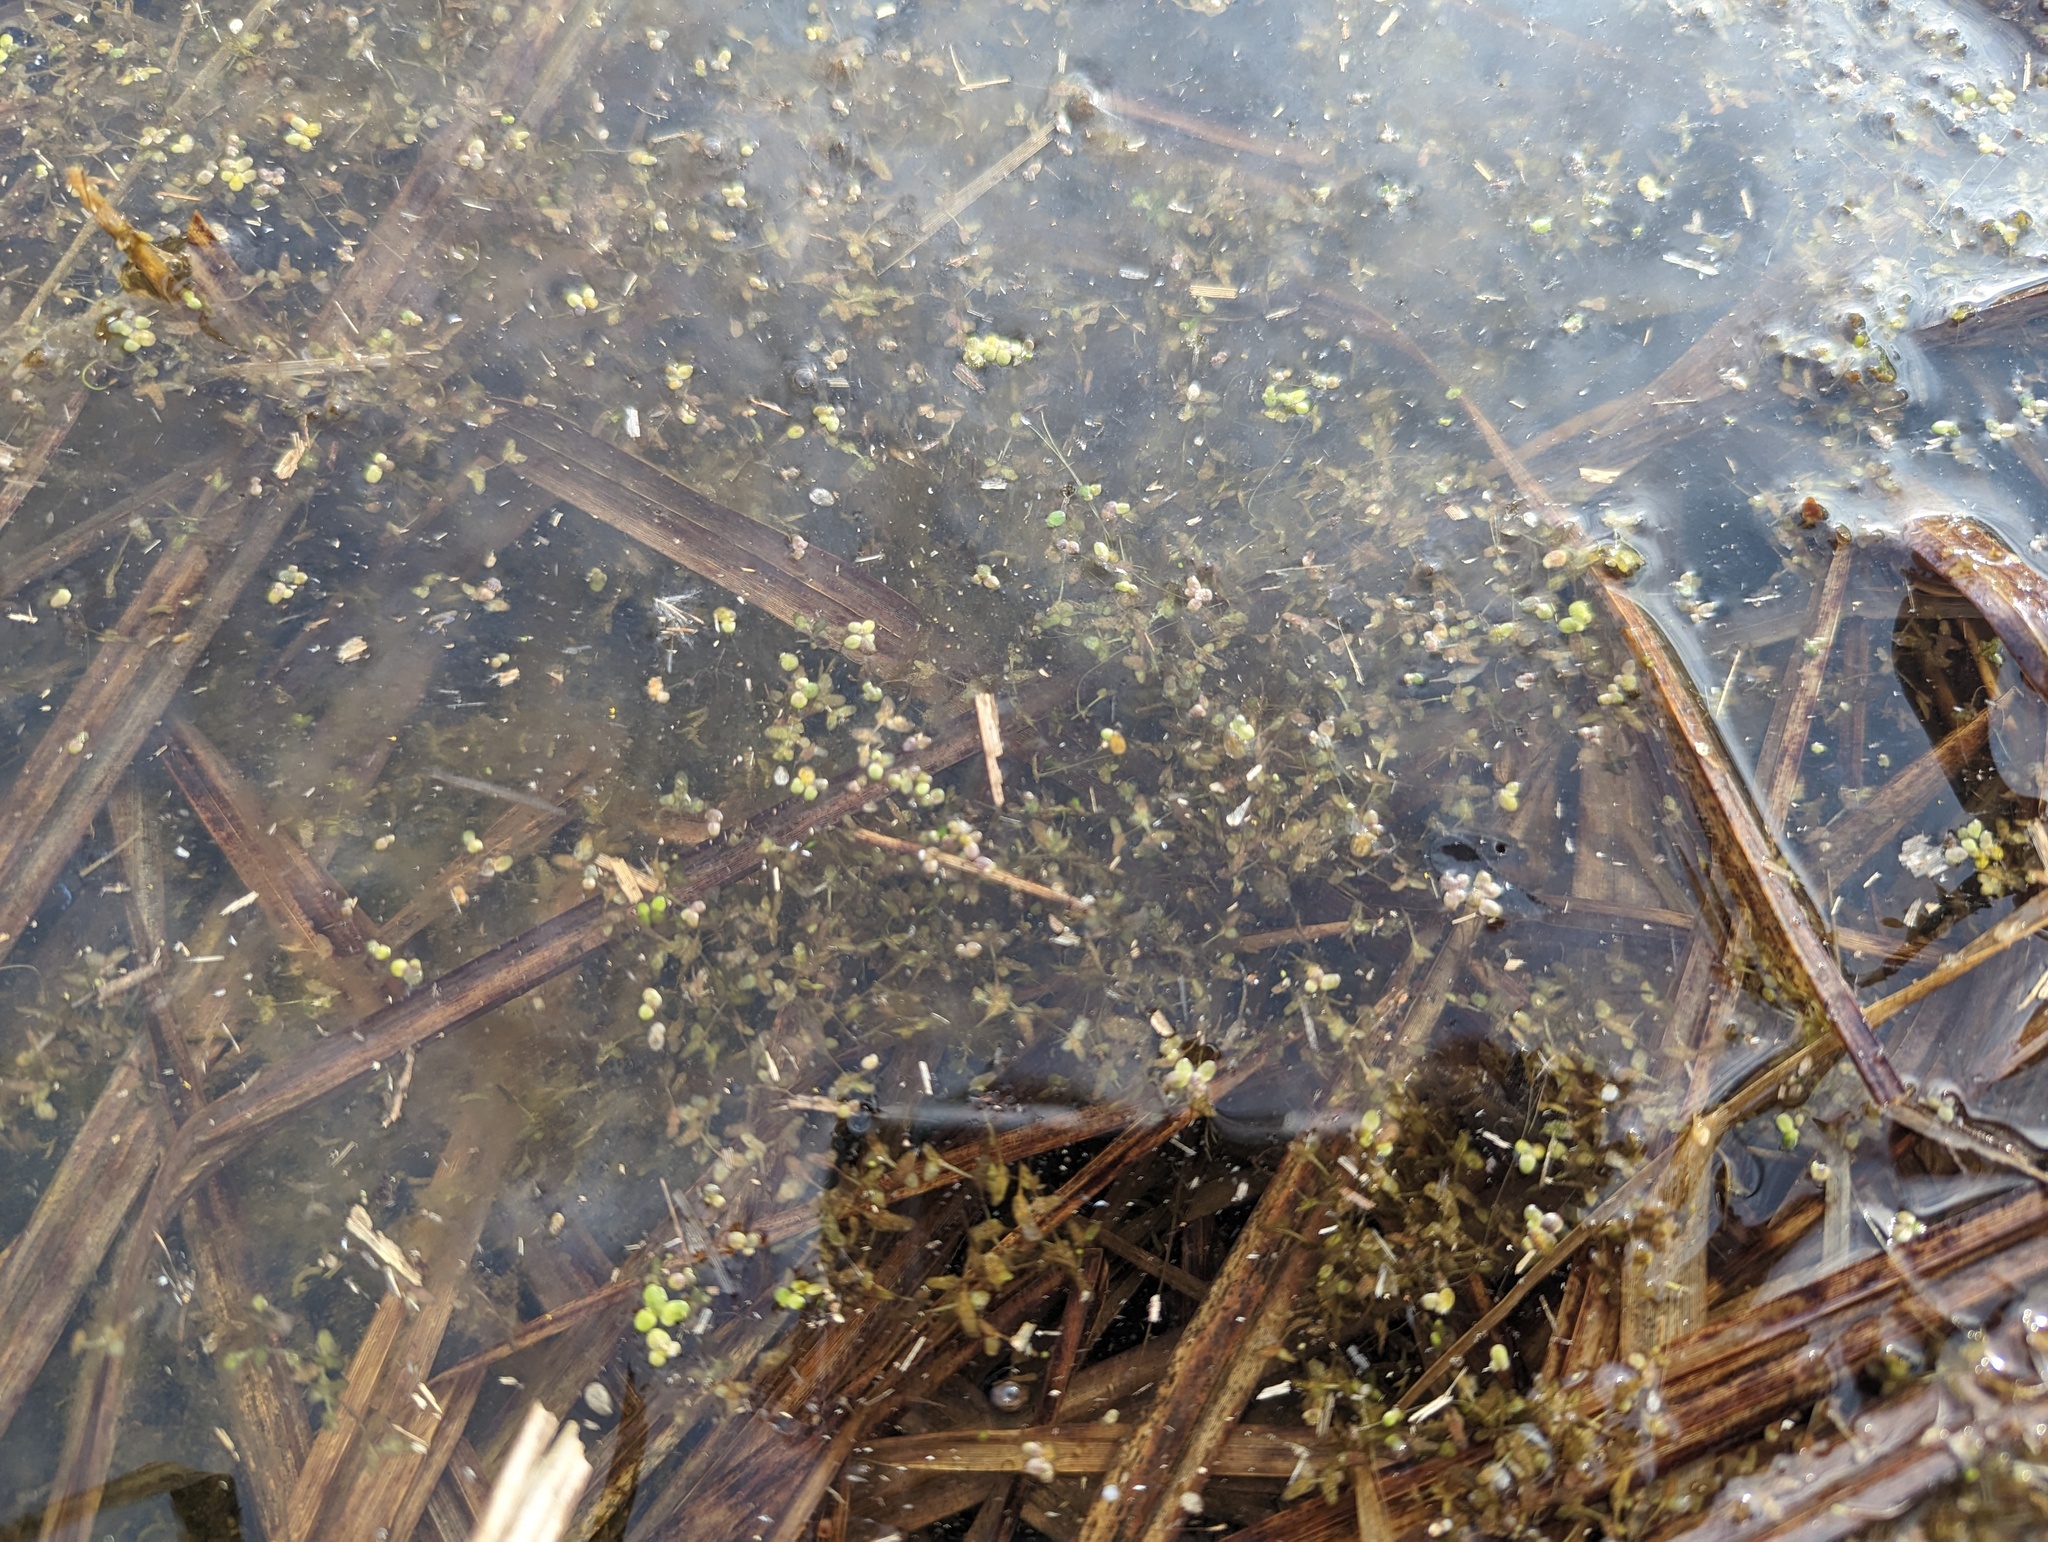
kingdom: Plantae
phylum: Tracheophyta
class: Liliopsida
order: Alismatales
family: Araceae
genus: Lemna
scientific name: Lemna trisulca
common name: Ivy-leaved duckweed
